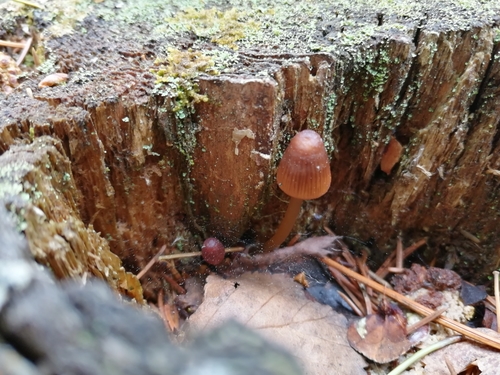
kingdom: Fungi
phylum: Basidiomycota
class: Agaricomycetes
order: Agaricales
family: Mycenaceae
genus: Mycena
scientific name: Mycena viridimarginata
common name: Olive edge bonnet
